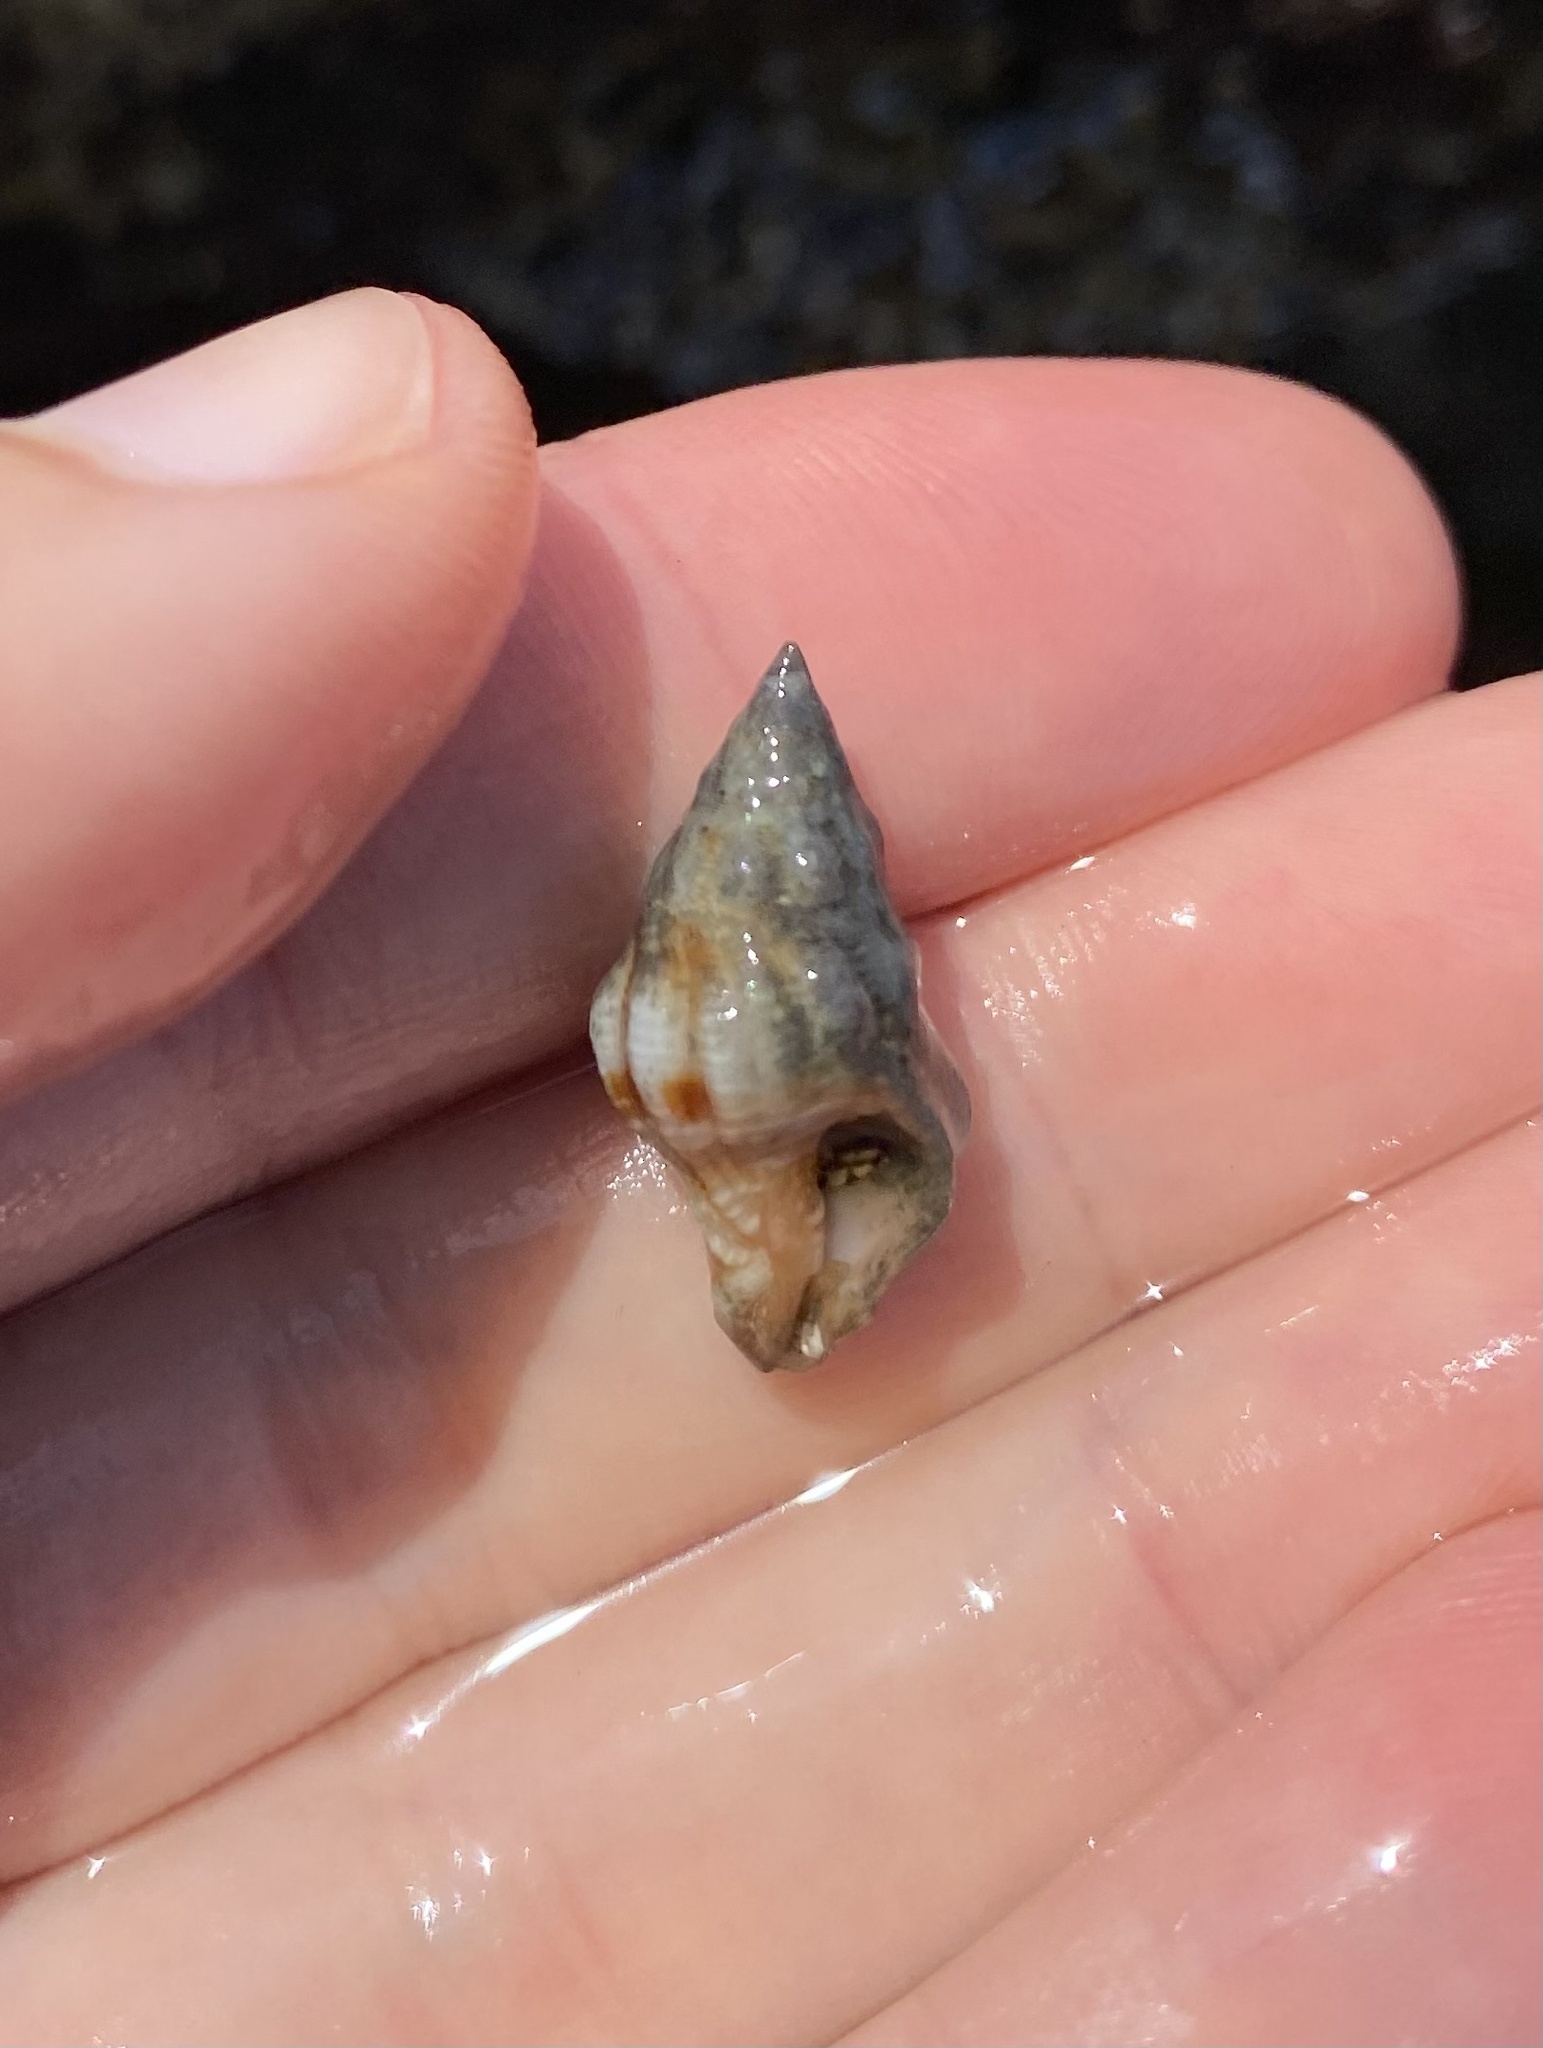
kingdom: Animalia
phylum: Mollusca
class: Gastropoda
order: Neogastropoda
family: Fasciolariidae
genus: Peristernia
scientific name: Peristernia forskalii
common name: Forsskal's whelk
